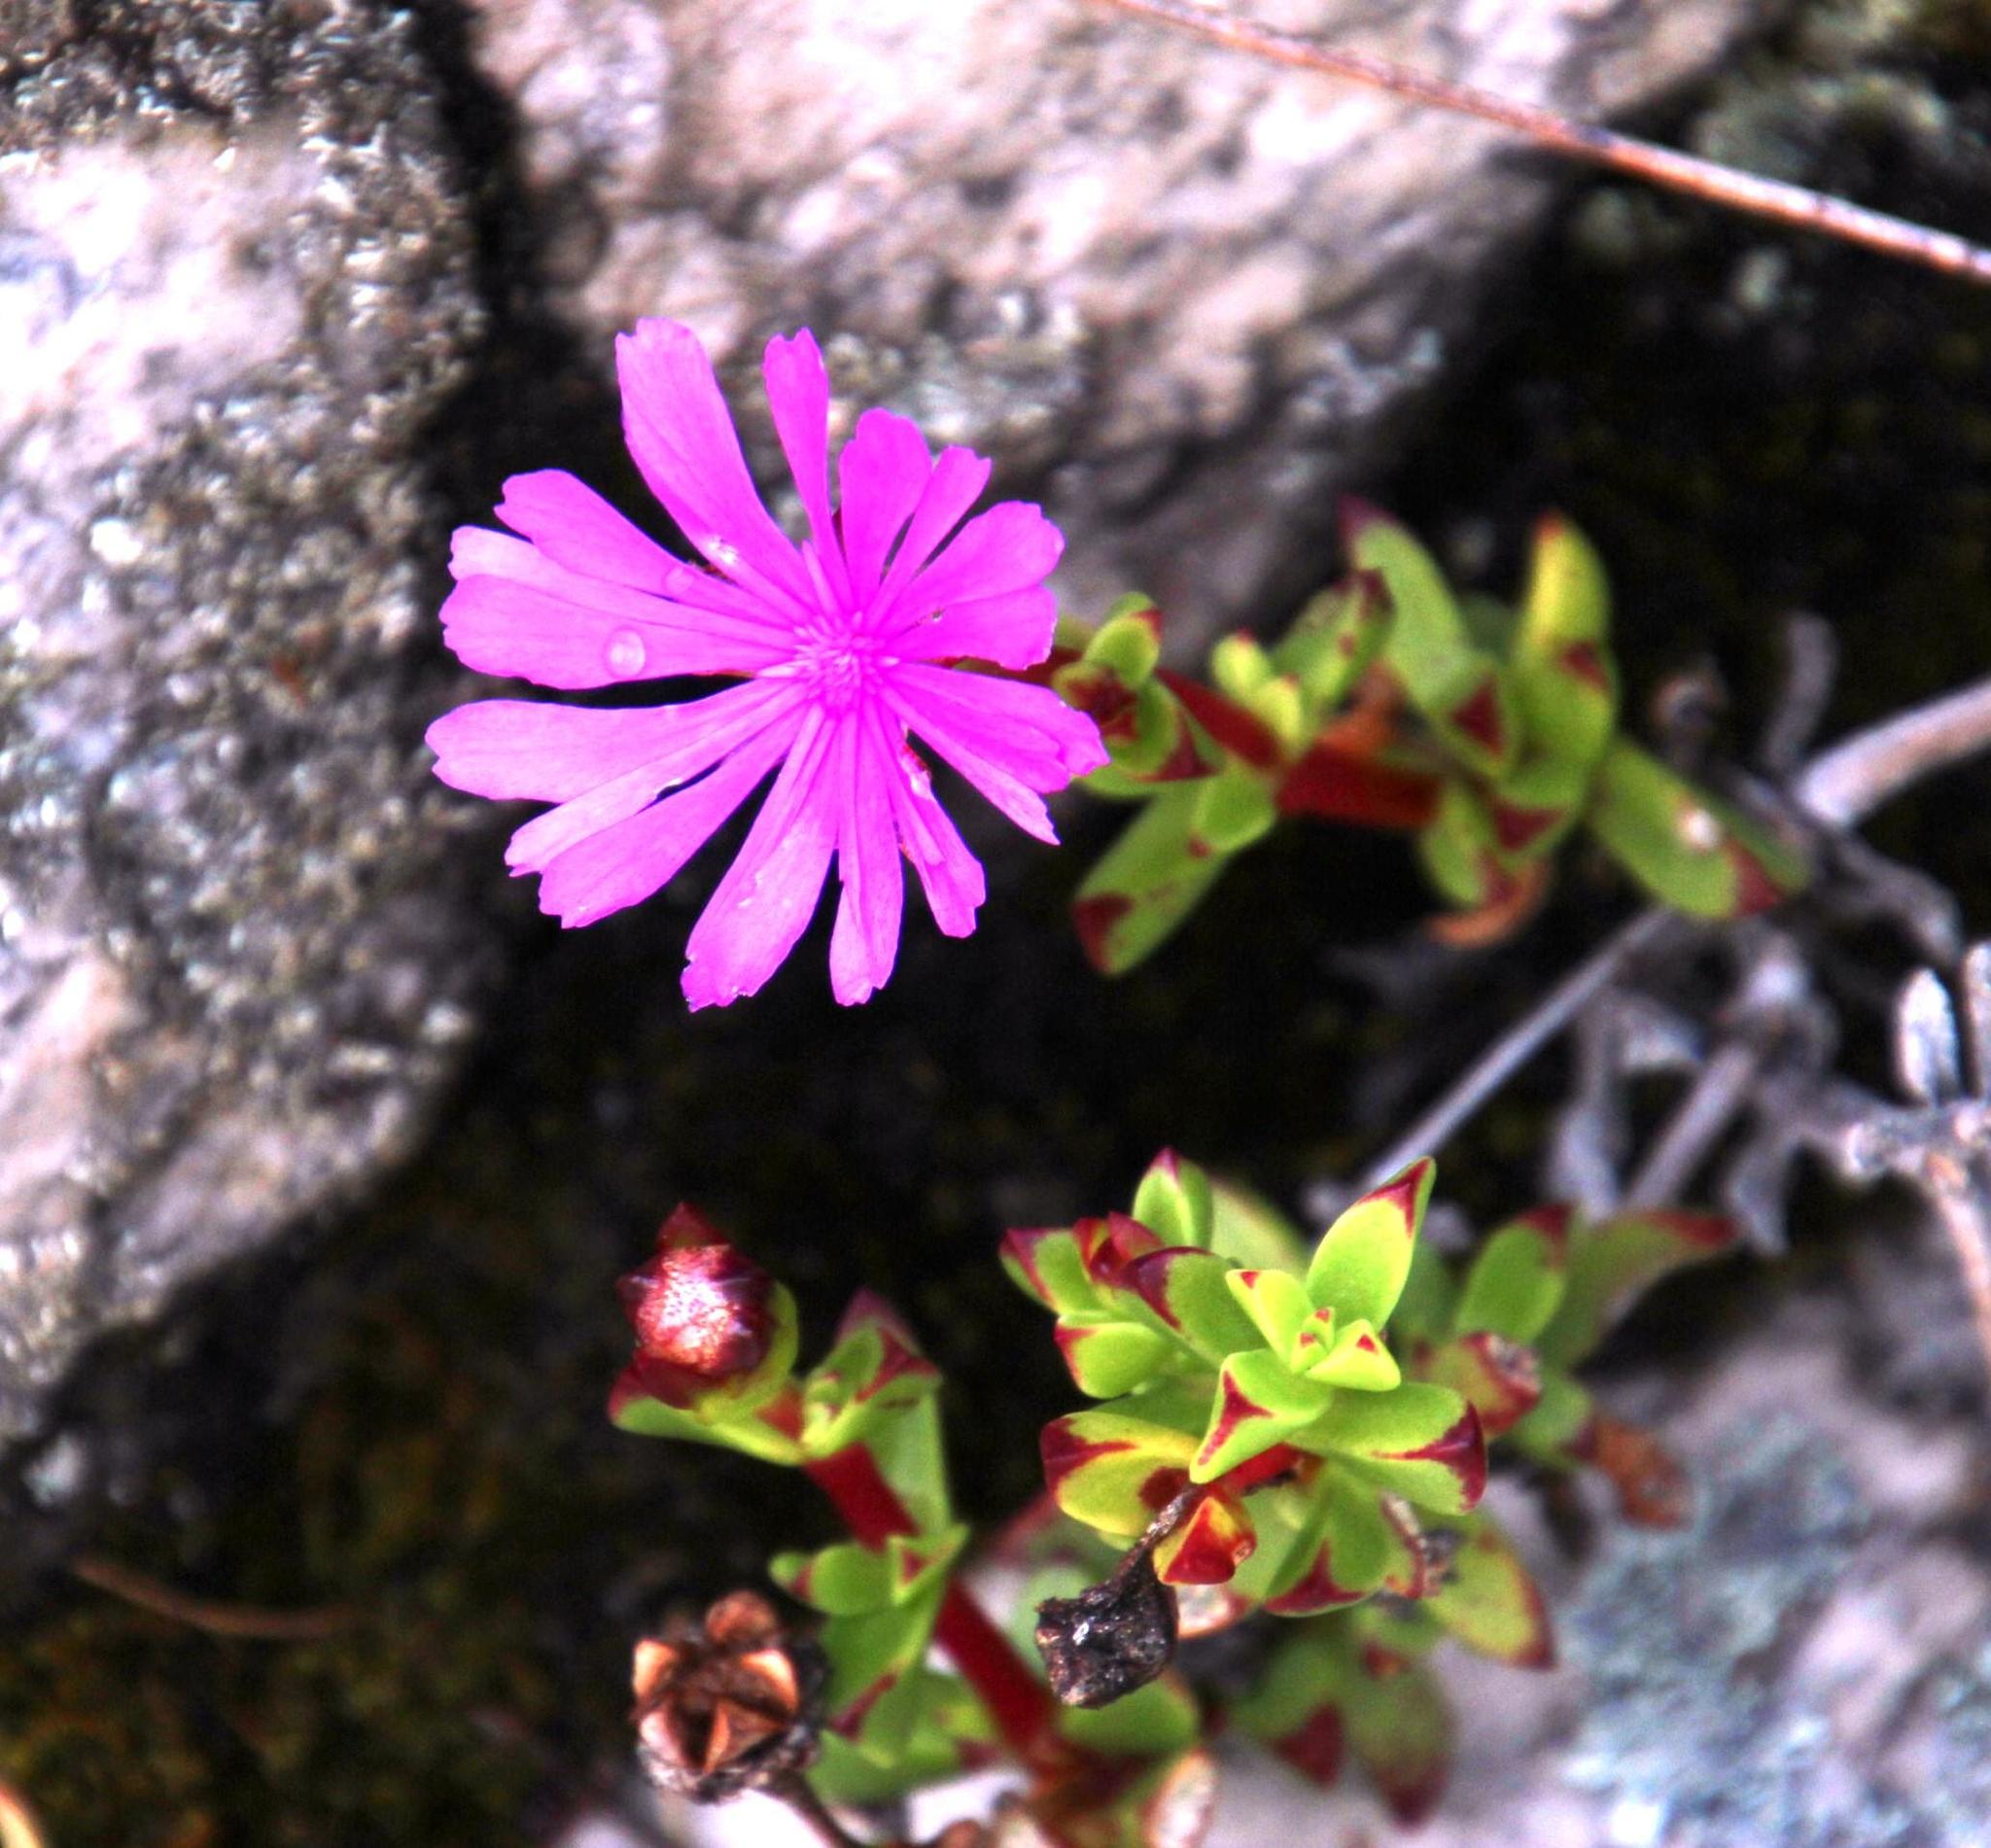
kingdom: Plantae
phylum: Tracheophyta
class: Magnoliopsida
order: Caryophyllales
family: Aizoaceae
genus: Erepsia
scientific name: Erepsia inclaudens
